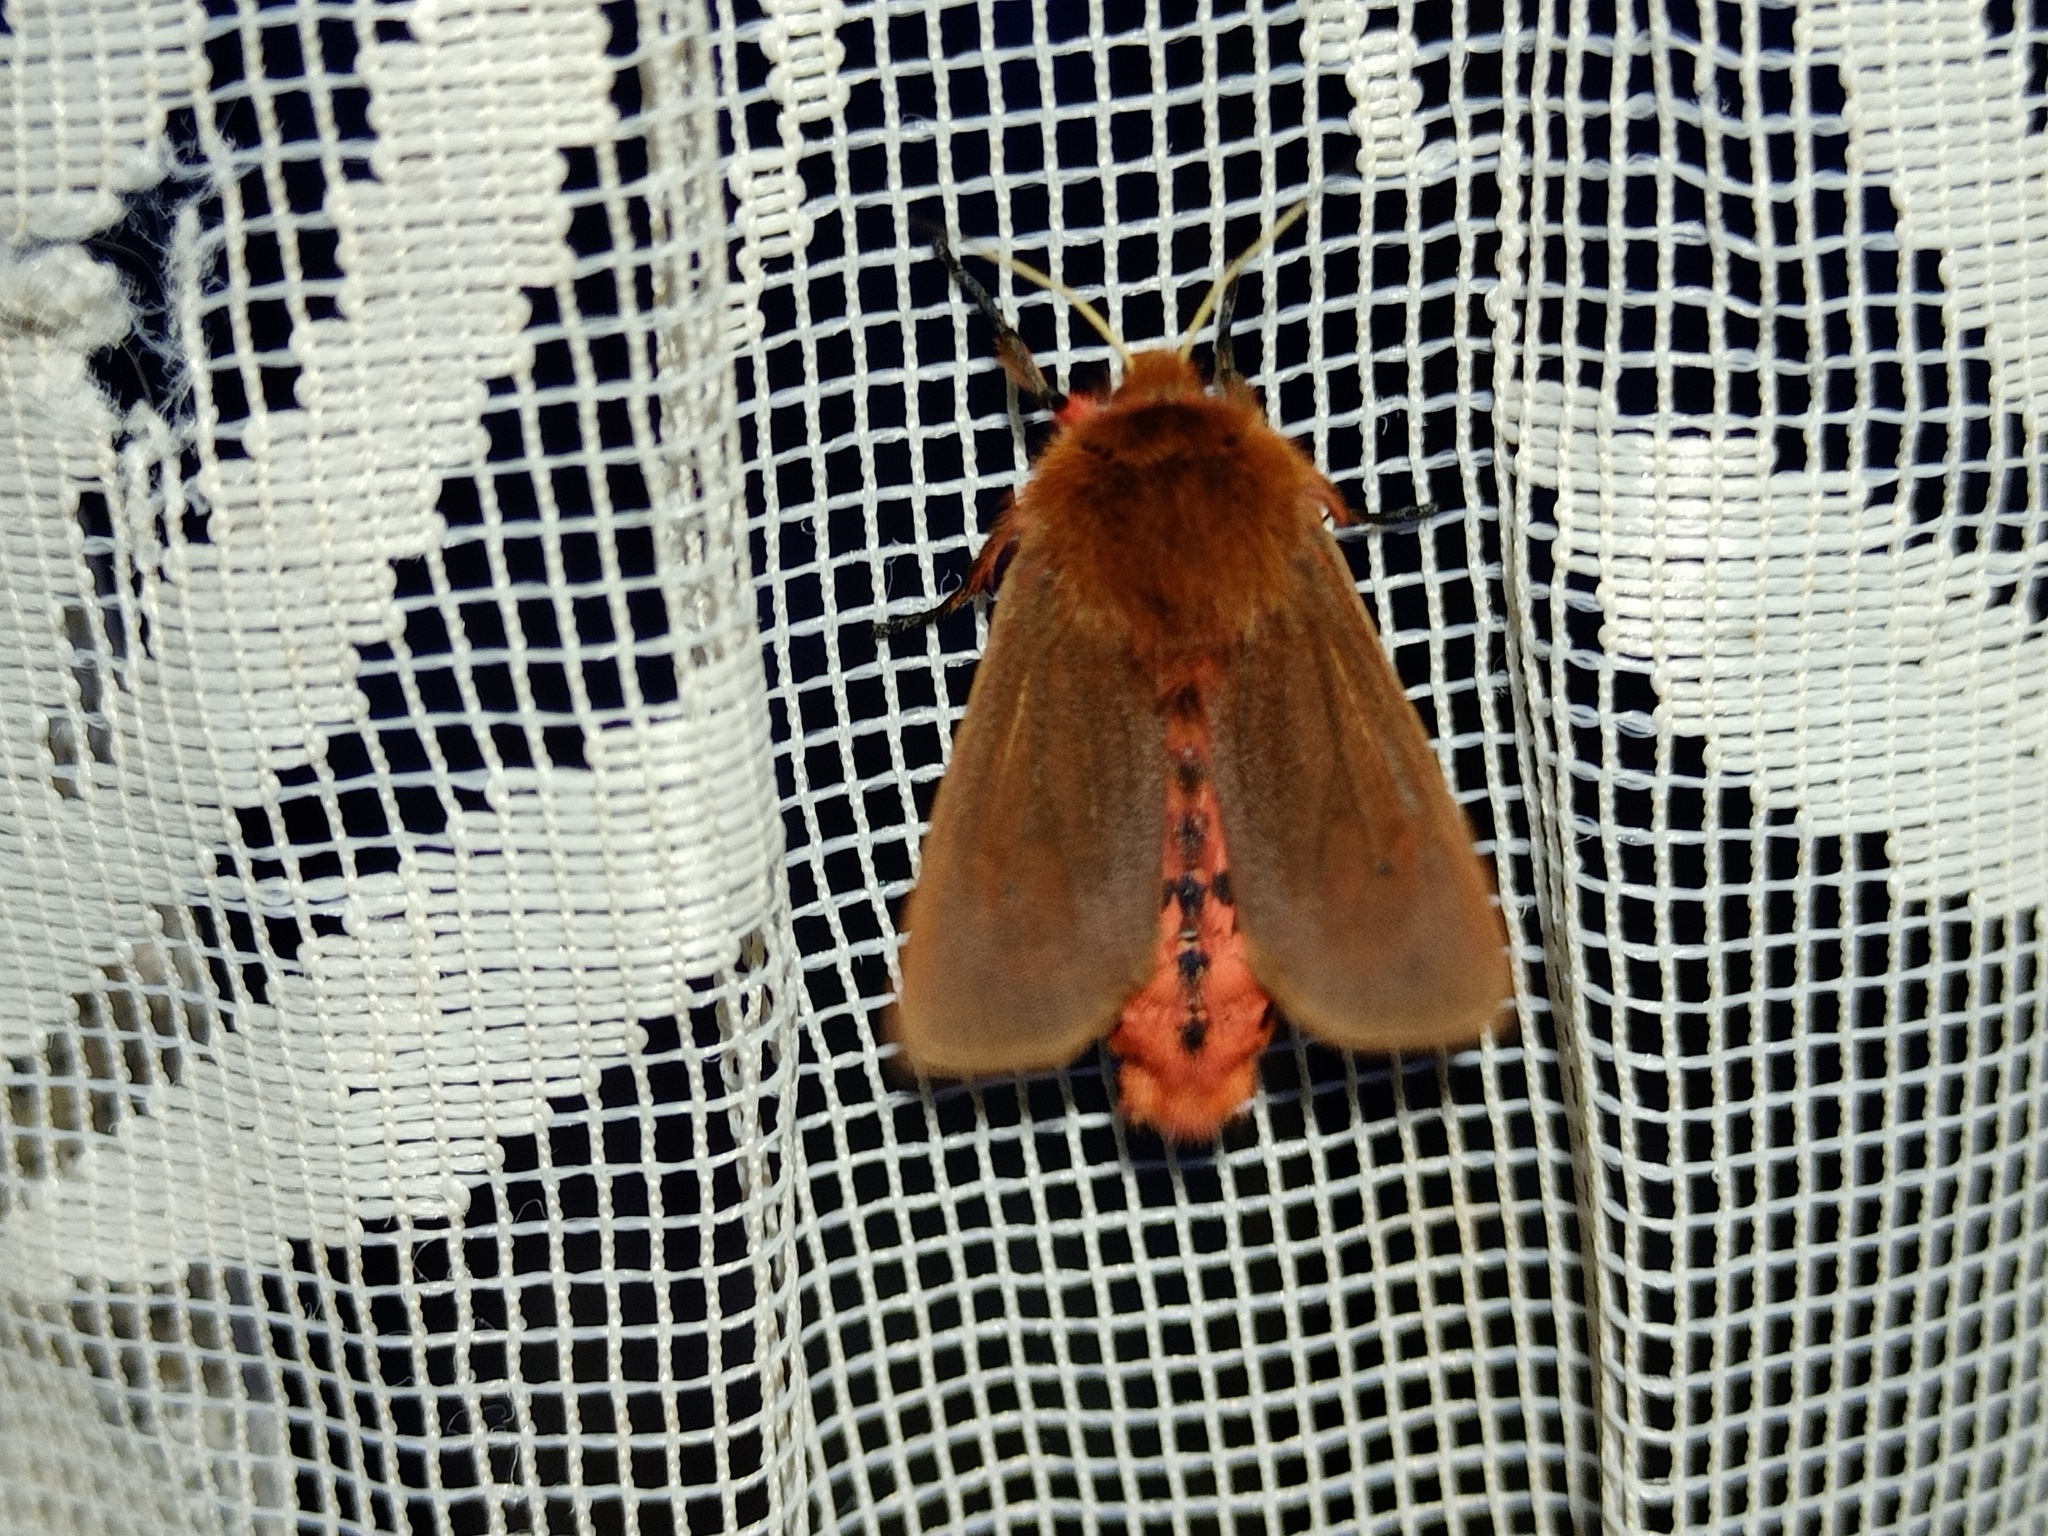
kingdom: Animalia
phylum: Arthropoda
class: Insecta
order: Lepidoptera
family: Erebidae
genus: Phragmatobia
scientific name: Phragmatobia fuliginosa
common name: Ruby tiger
